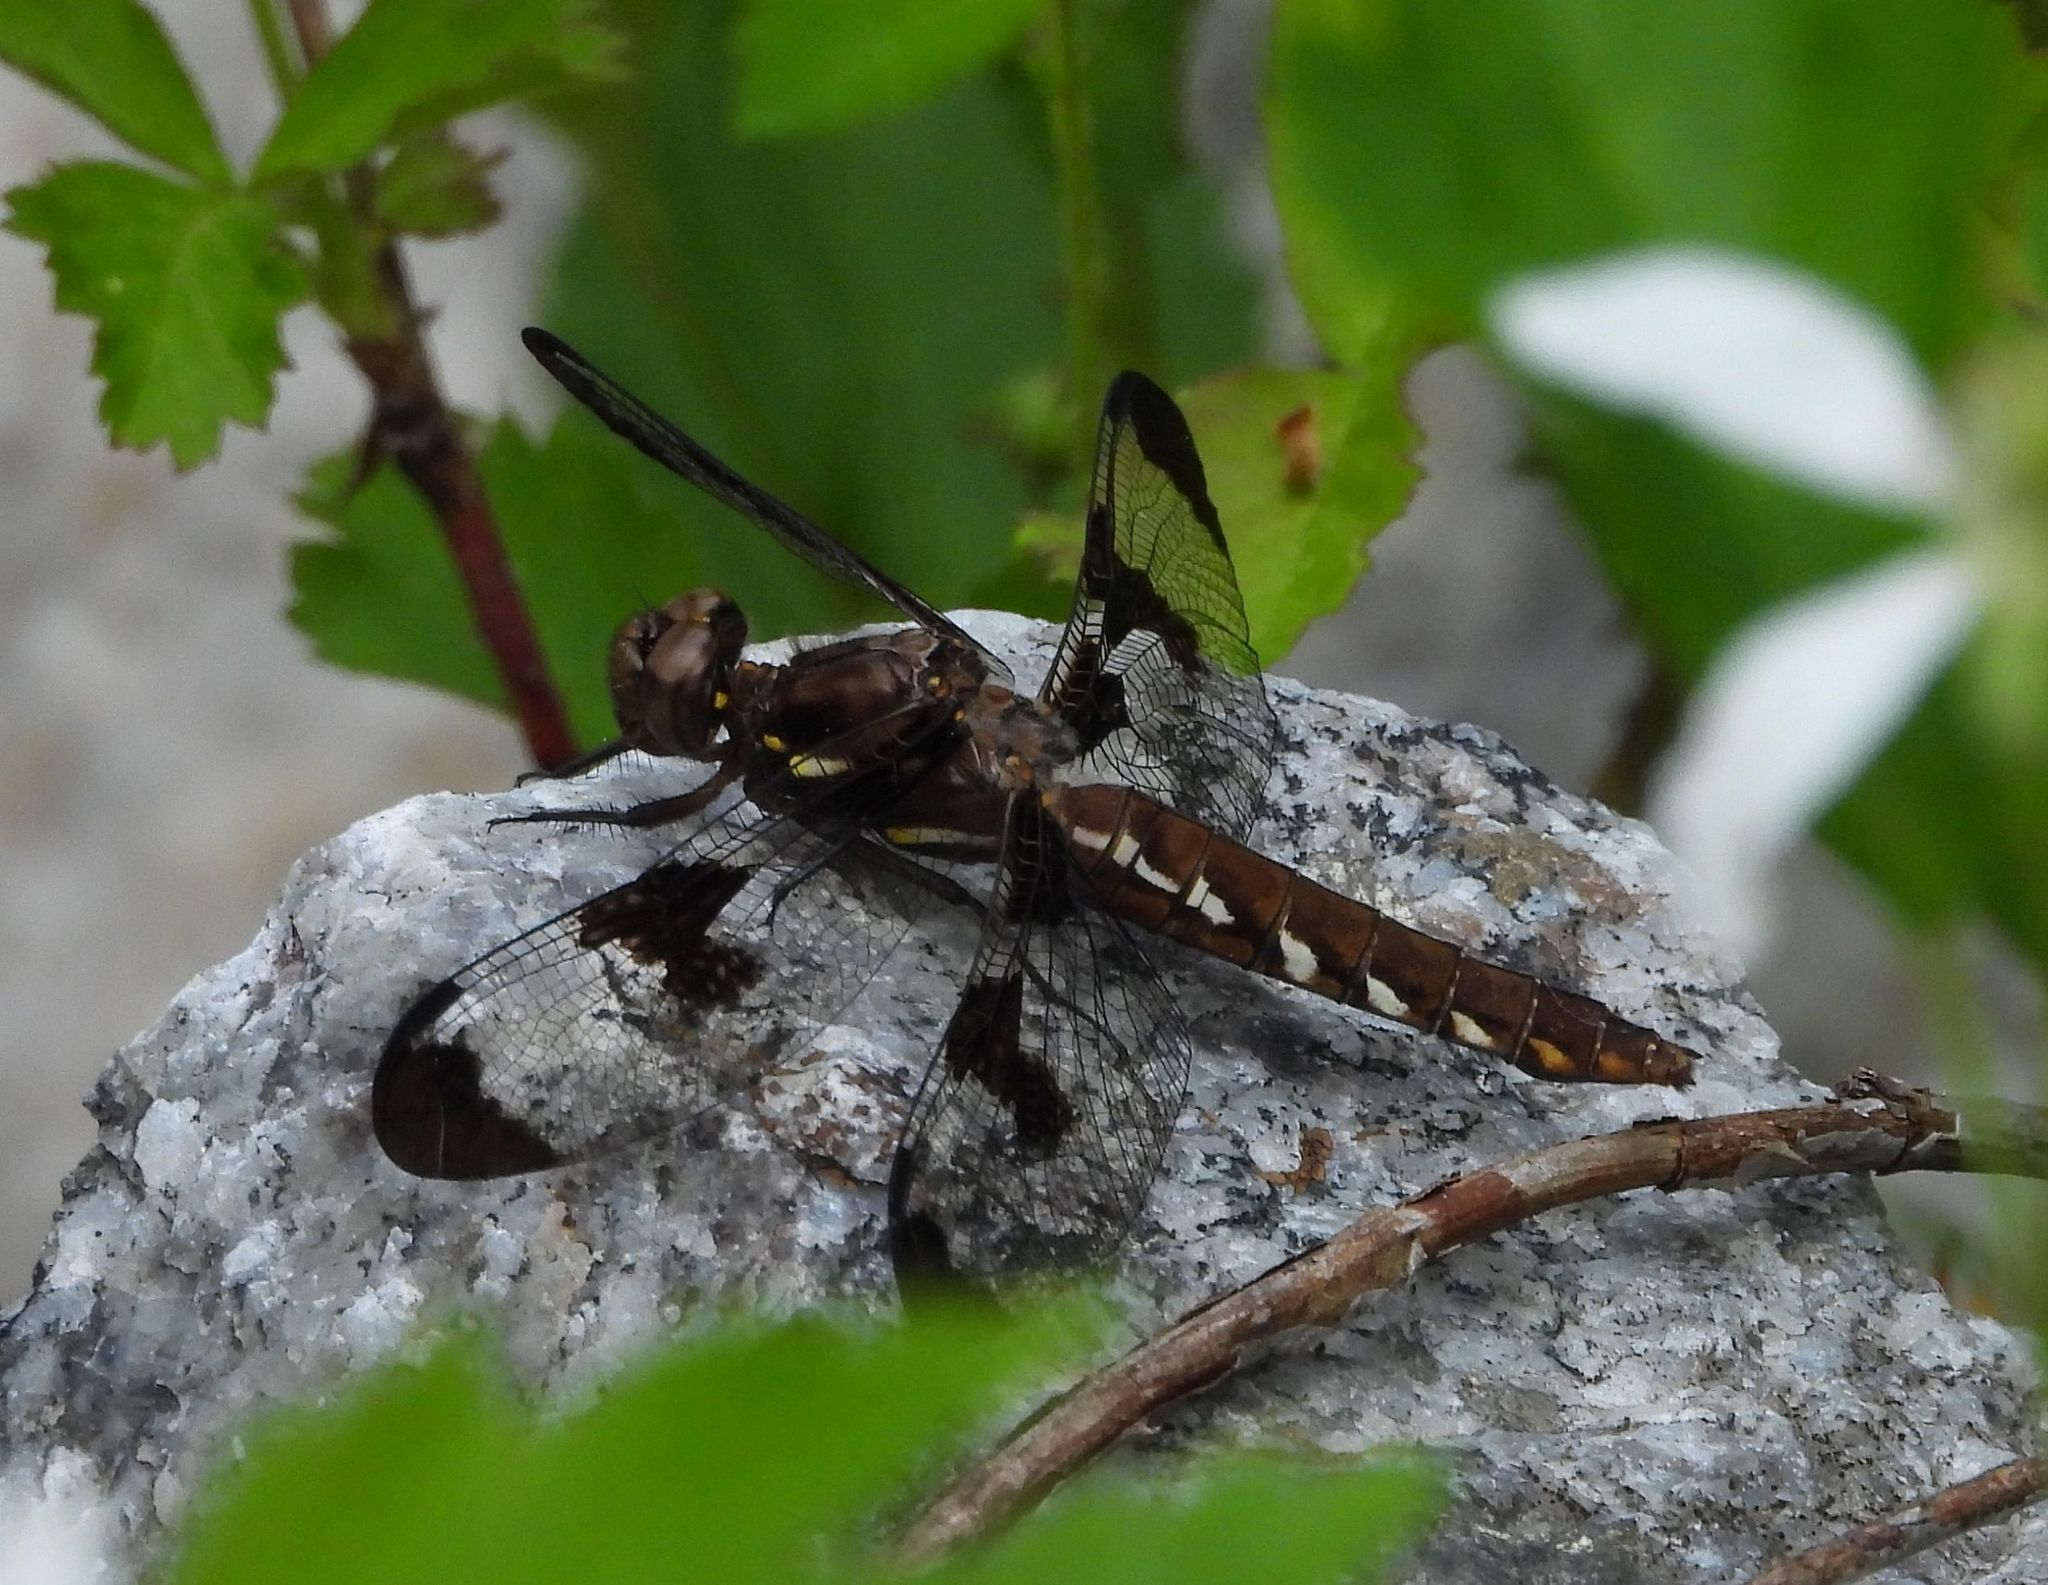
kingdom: Animalia
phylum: Arthropoda
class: Insecta
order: Odonata
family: Libellulidae
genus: Plathemis
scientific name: Plathemis lydia
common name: Common whitetail
